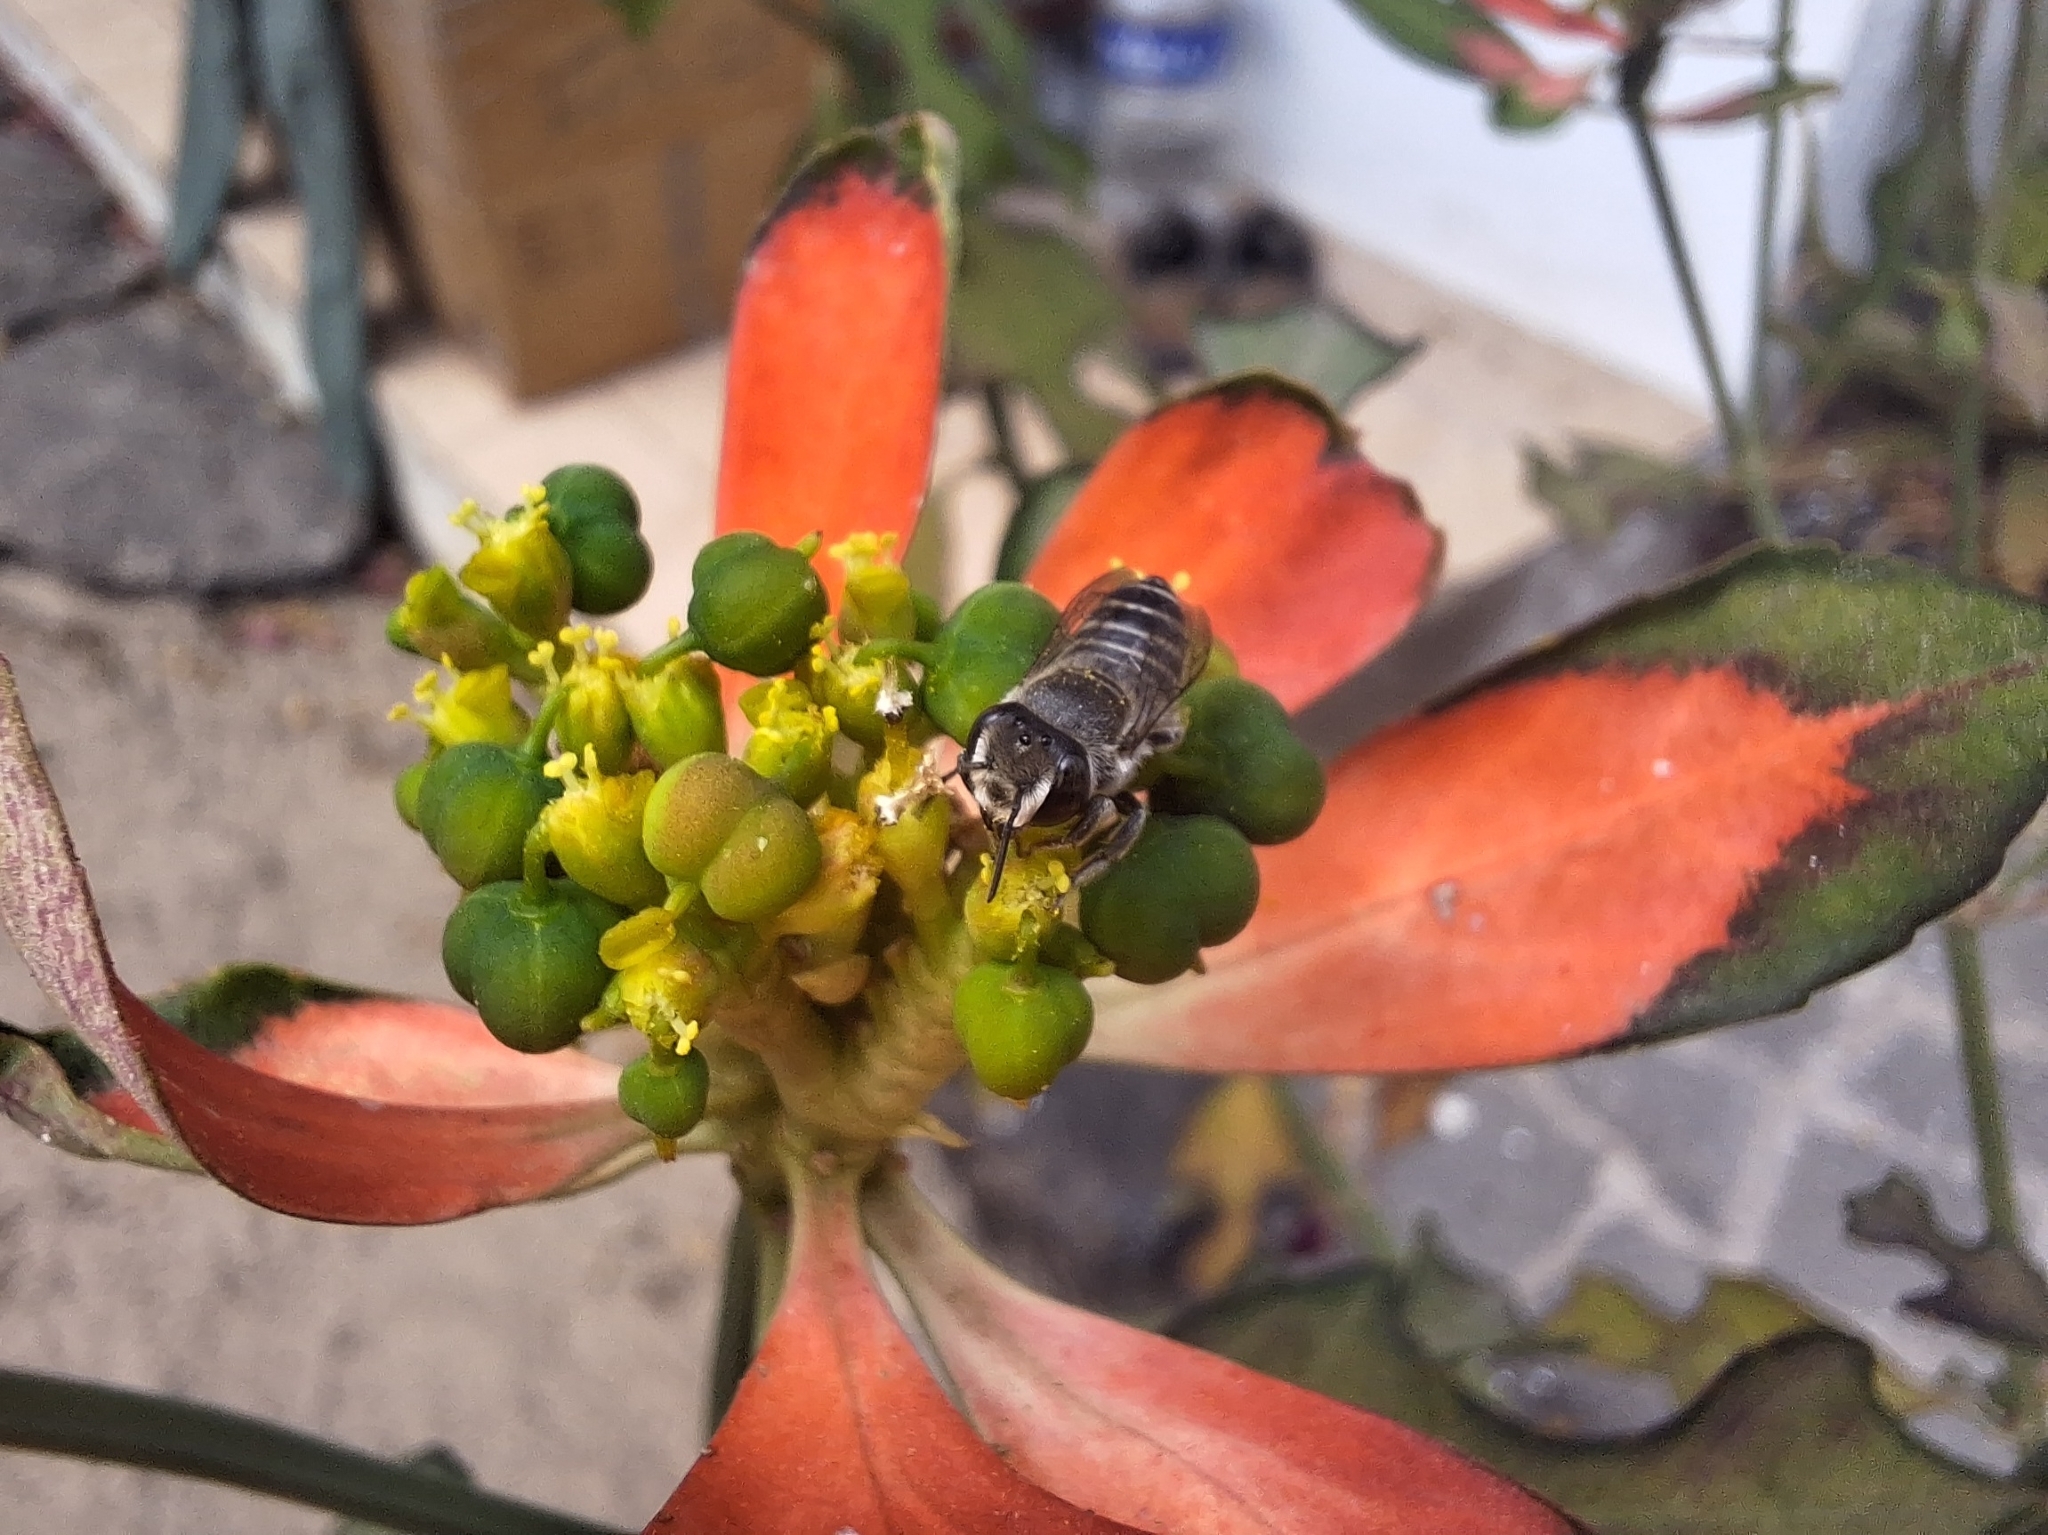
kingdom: Animalia
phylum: Arthropoda
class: Insecta
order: Hymenoptera
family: Megachilidae
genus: Megachile
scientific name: Megachile pusilla
